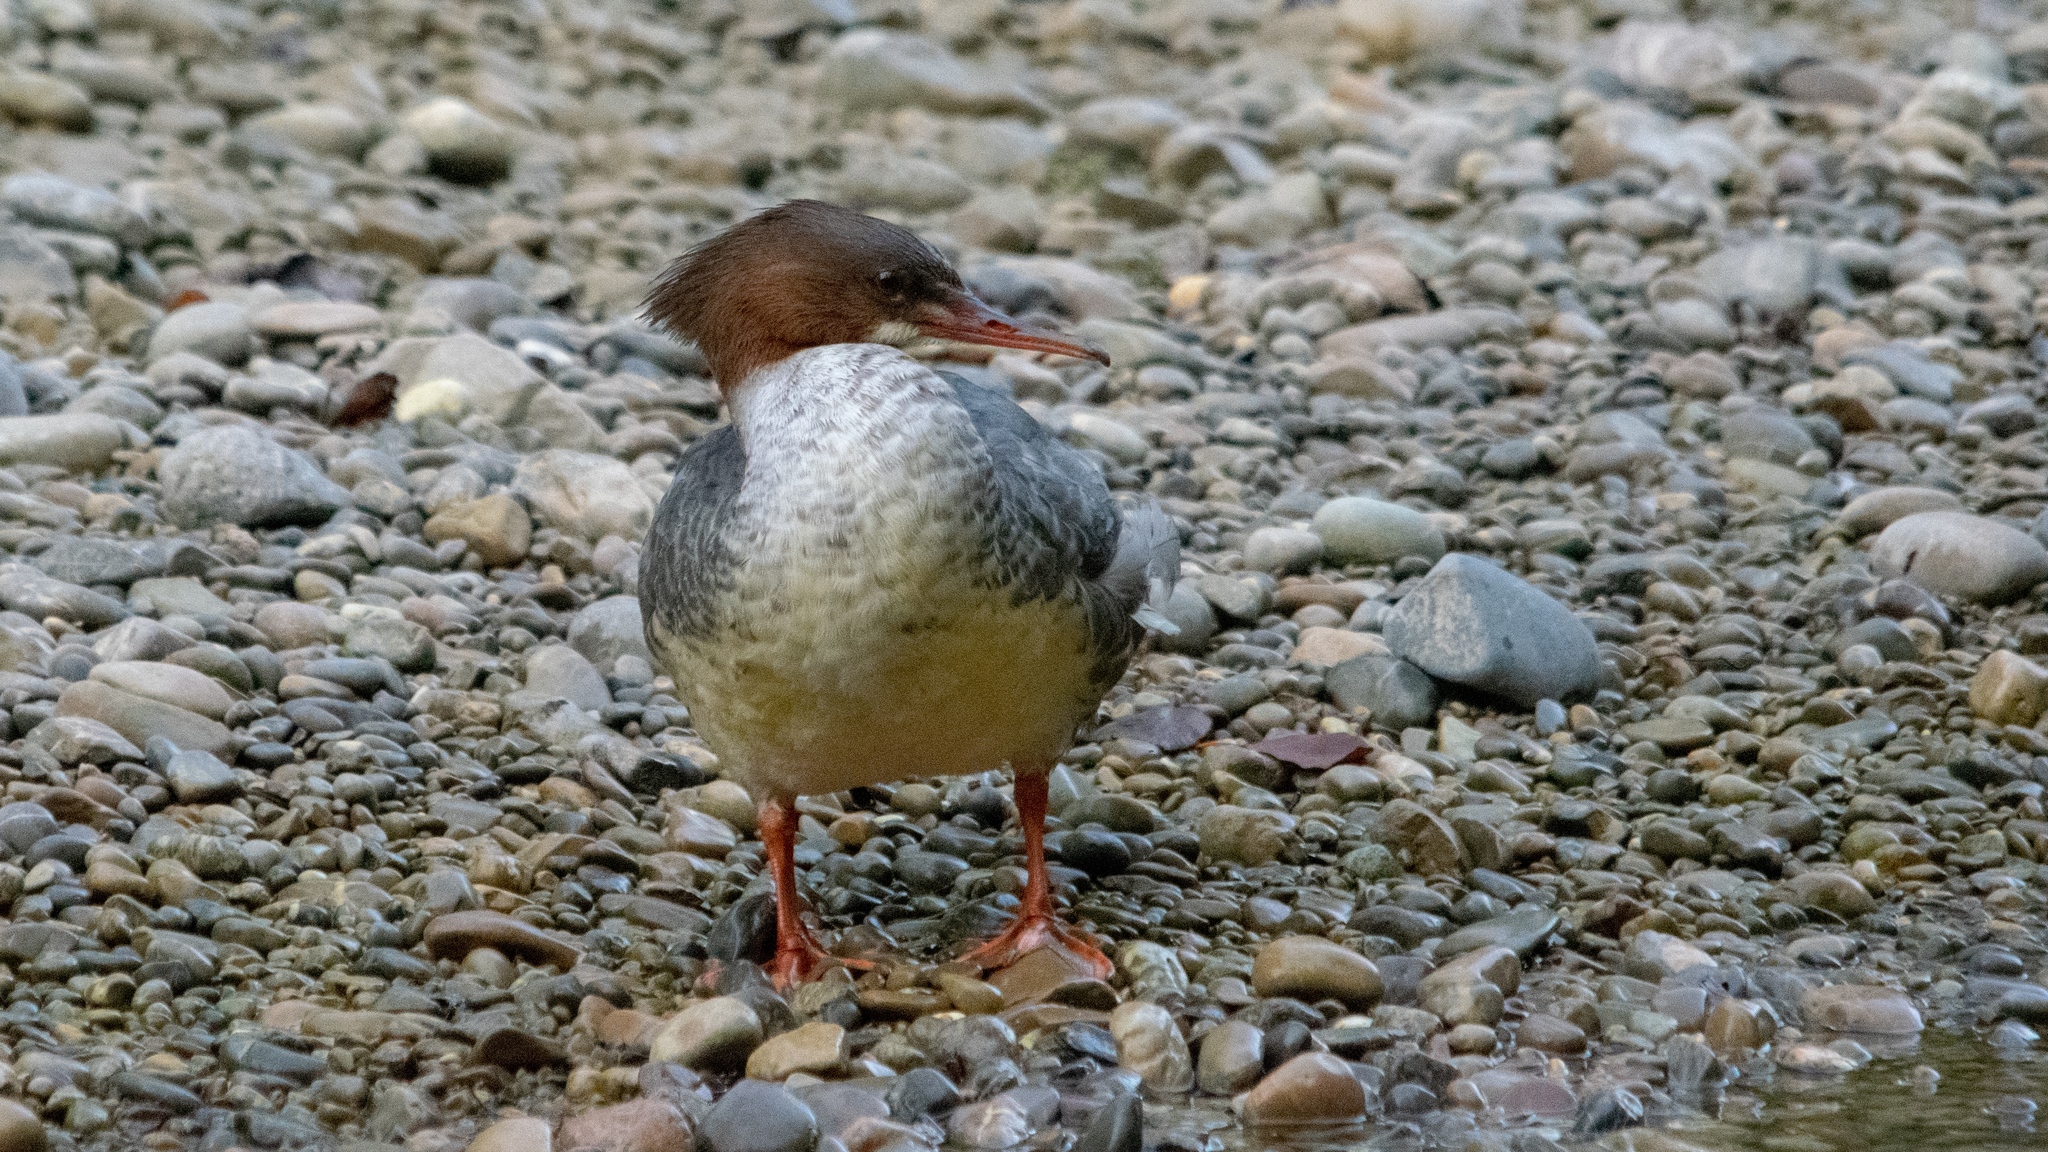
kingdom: Animalia
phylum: Chordata
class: Aves
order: Anseriformes
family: Anatidae
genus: Mergus
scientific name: Mergus merganser
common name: Common merganser
